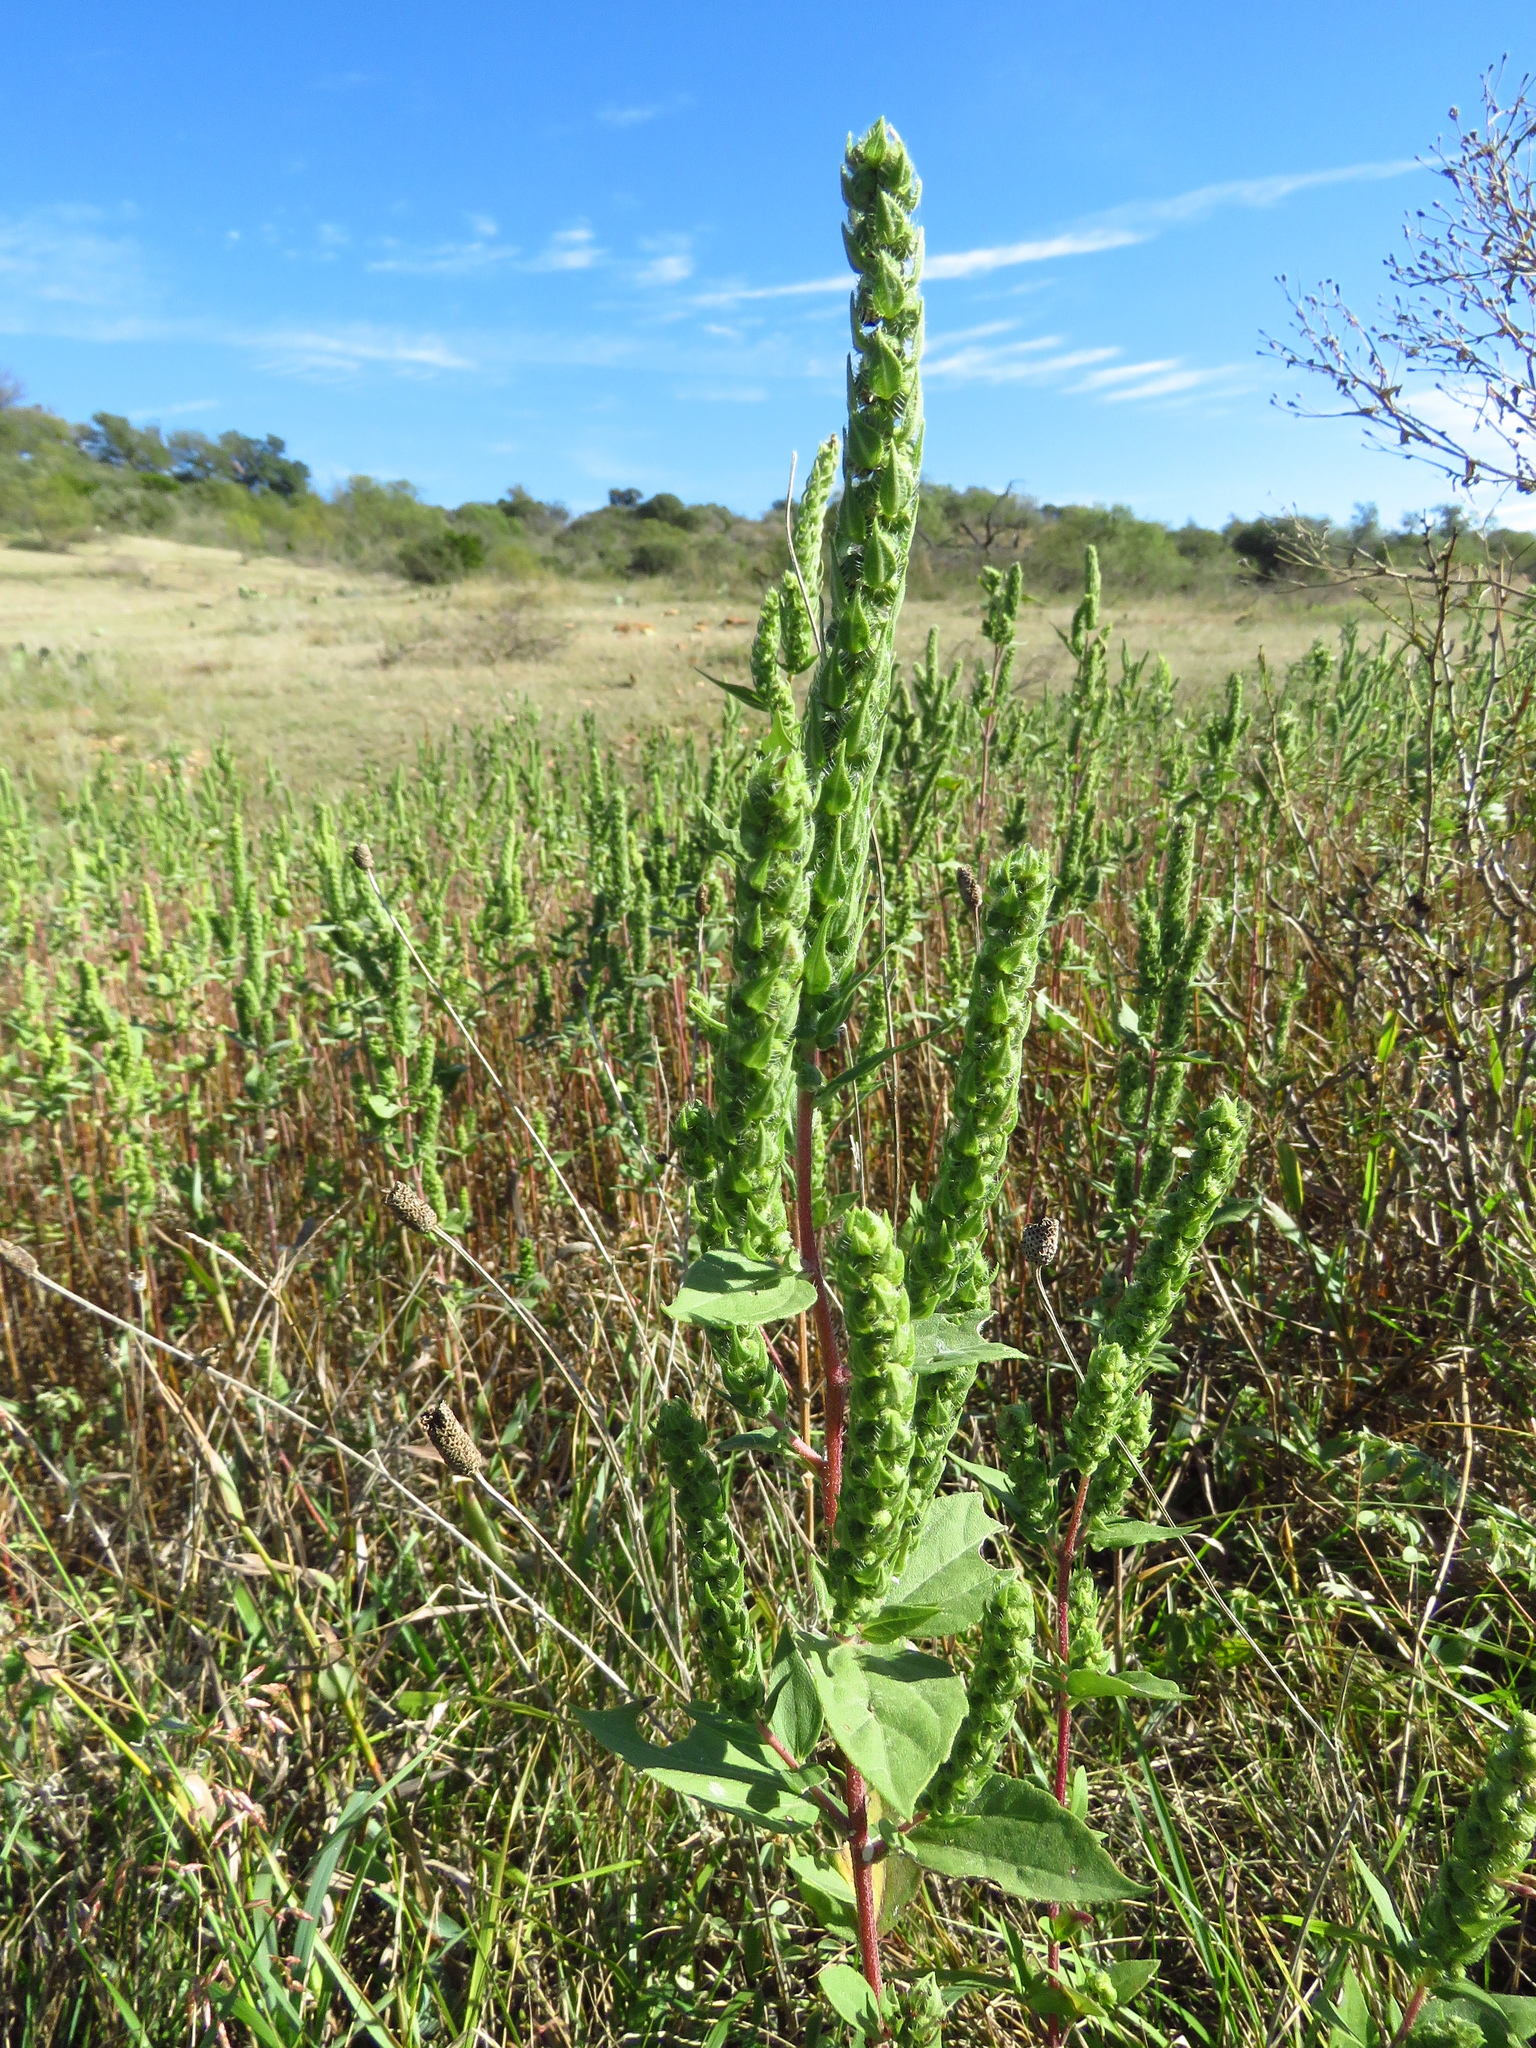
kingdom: Plantae
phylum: Tracheophyta
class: Magnoliopsida
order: Asterales
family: Asteraceae
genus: Iva
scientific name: Iva annua
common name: Marsh-elder
